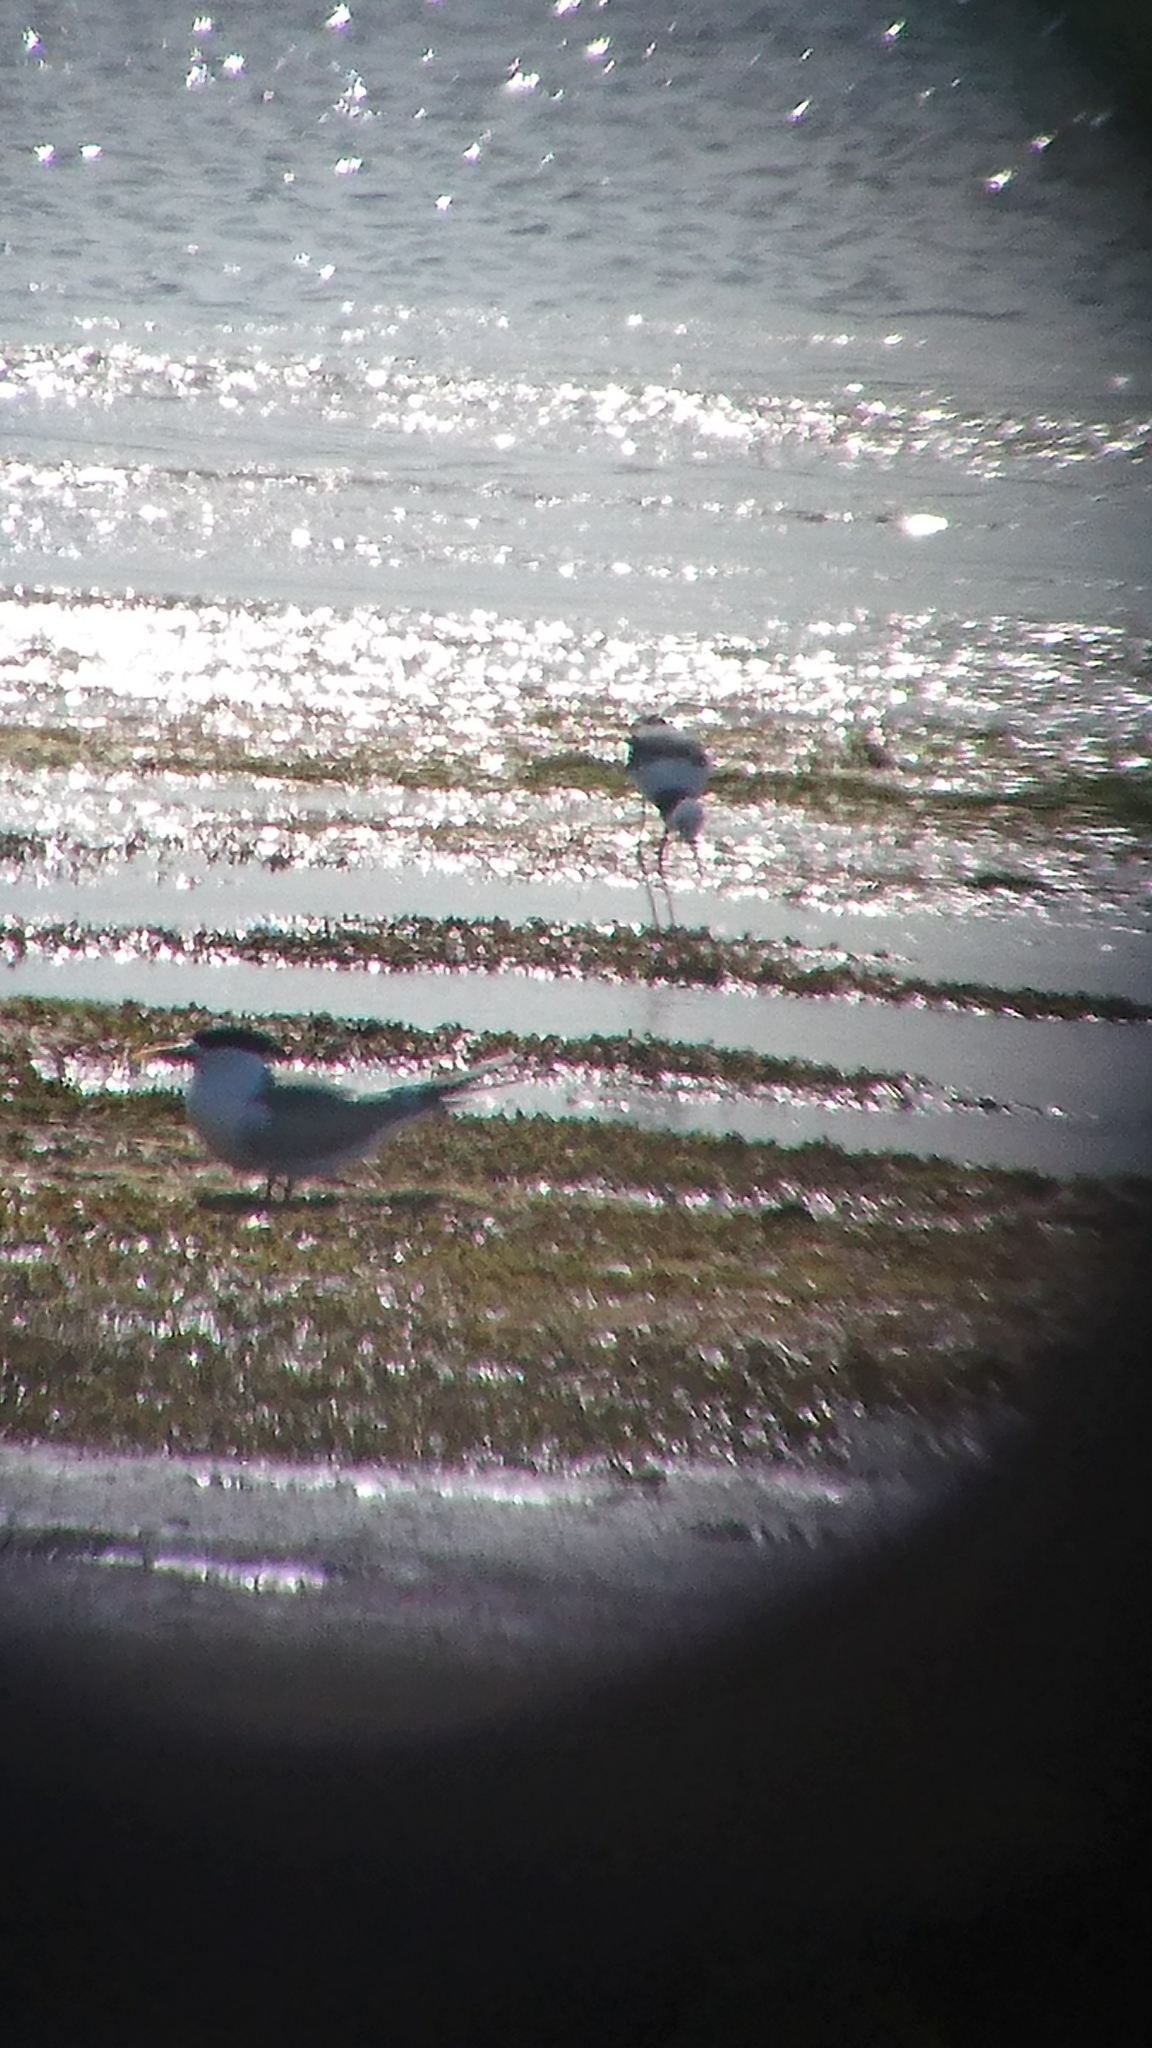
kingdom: Animalia
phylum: Chordata
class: Aves
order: Charadriiformes
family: Recurvirostridae
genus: Himantopus
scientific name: Himantopus leucocephalus
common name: White-headed stilt
